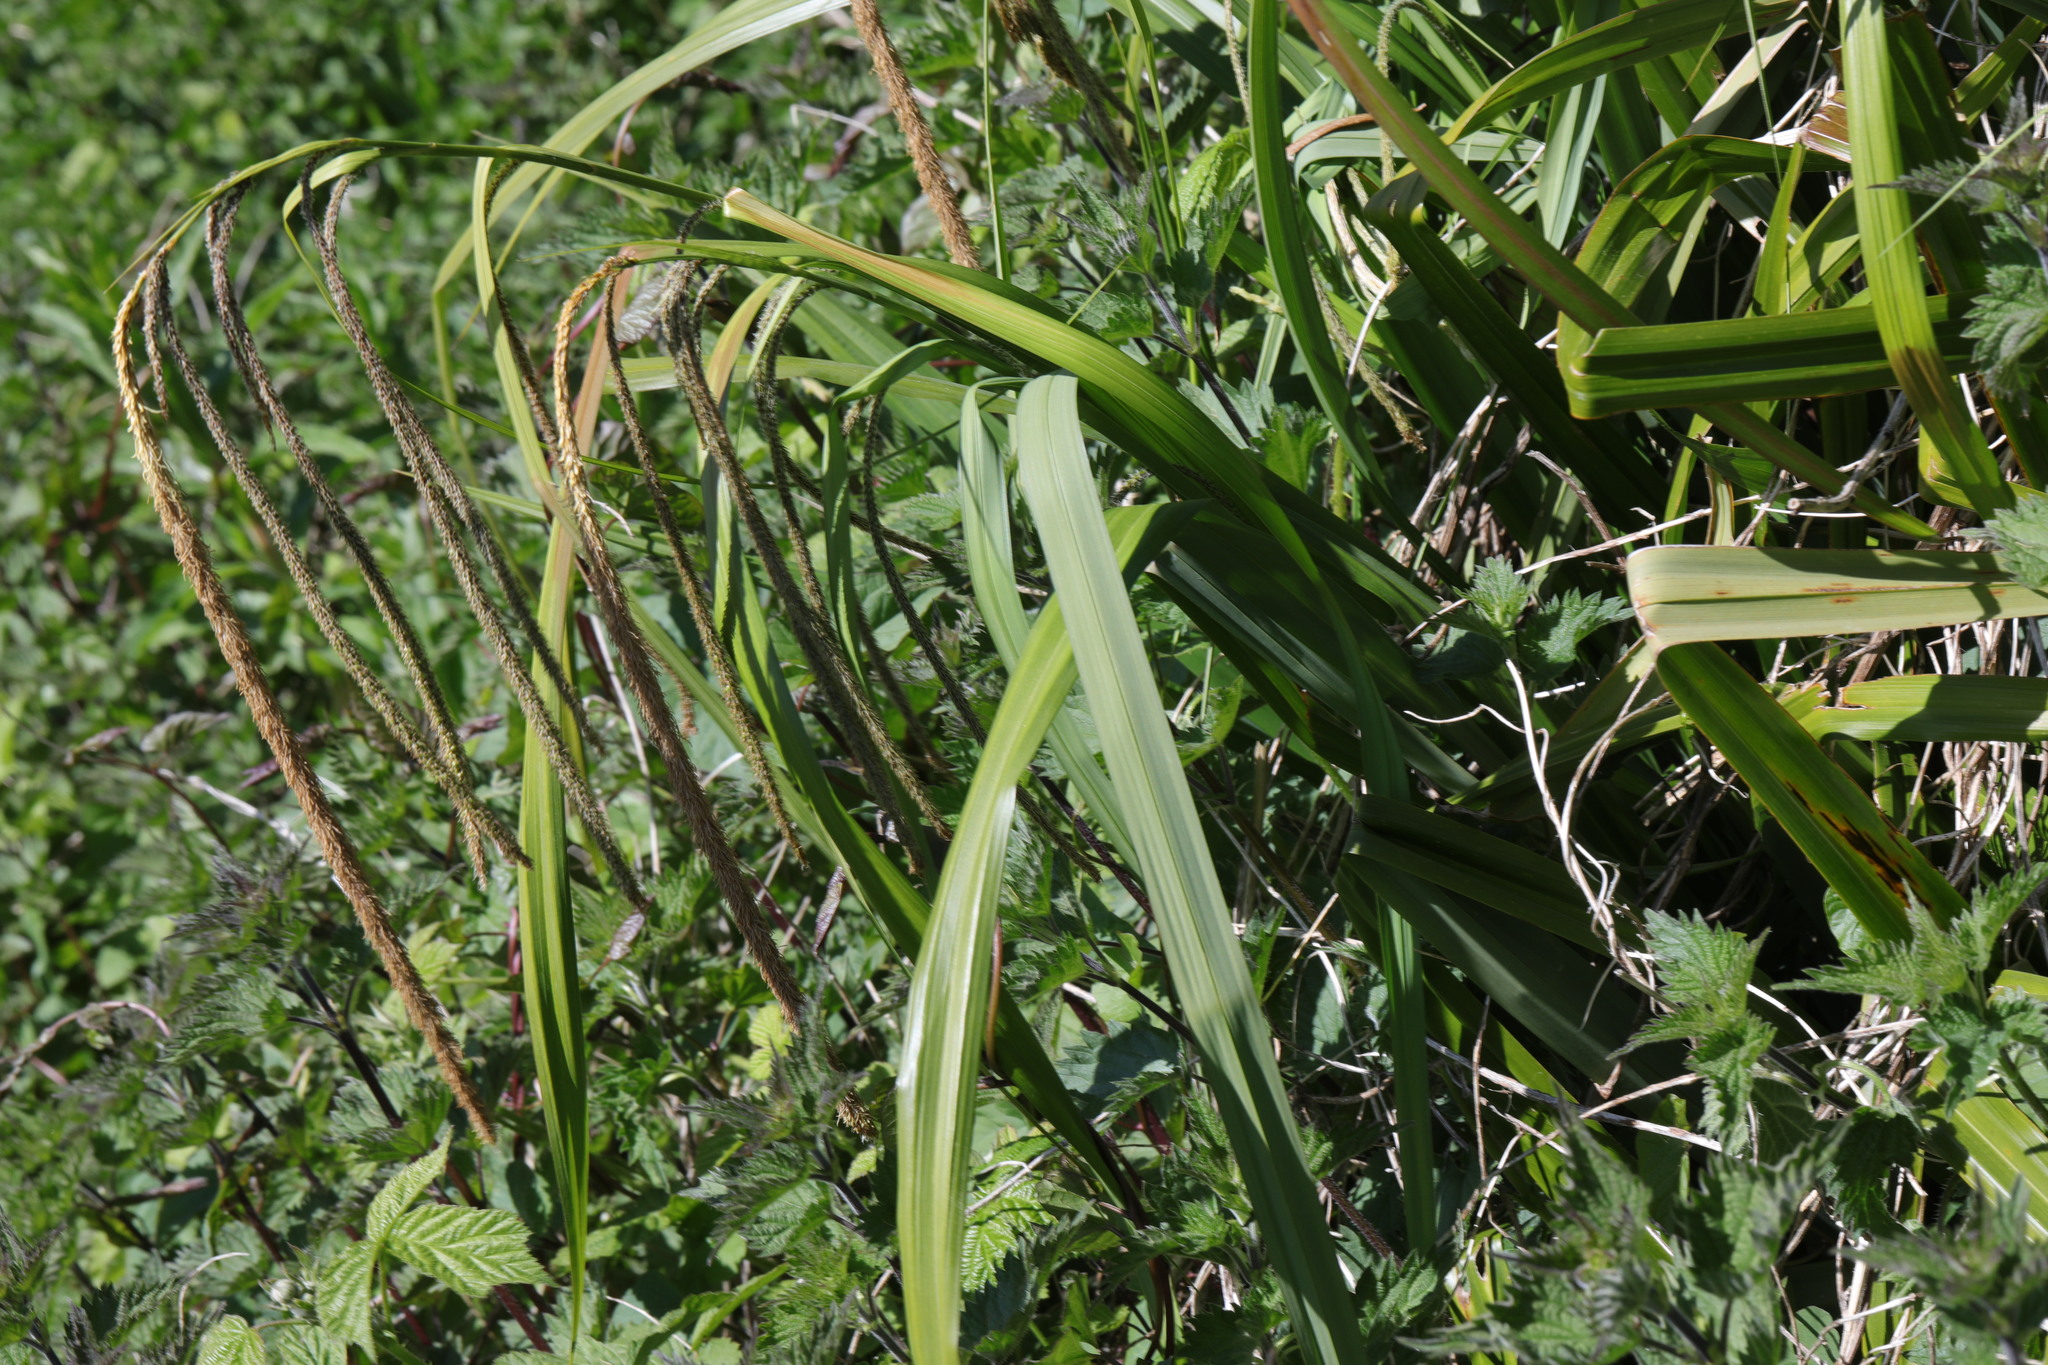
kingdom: Plantae
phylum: Tracheophyta
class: Liliopsida
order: Poales
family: Cyperaceae
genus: Carex
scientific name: Carex pendula
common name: Pendulous sedge
